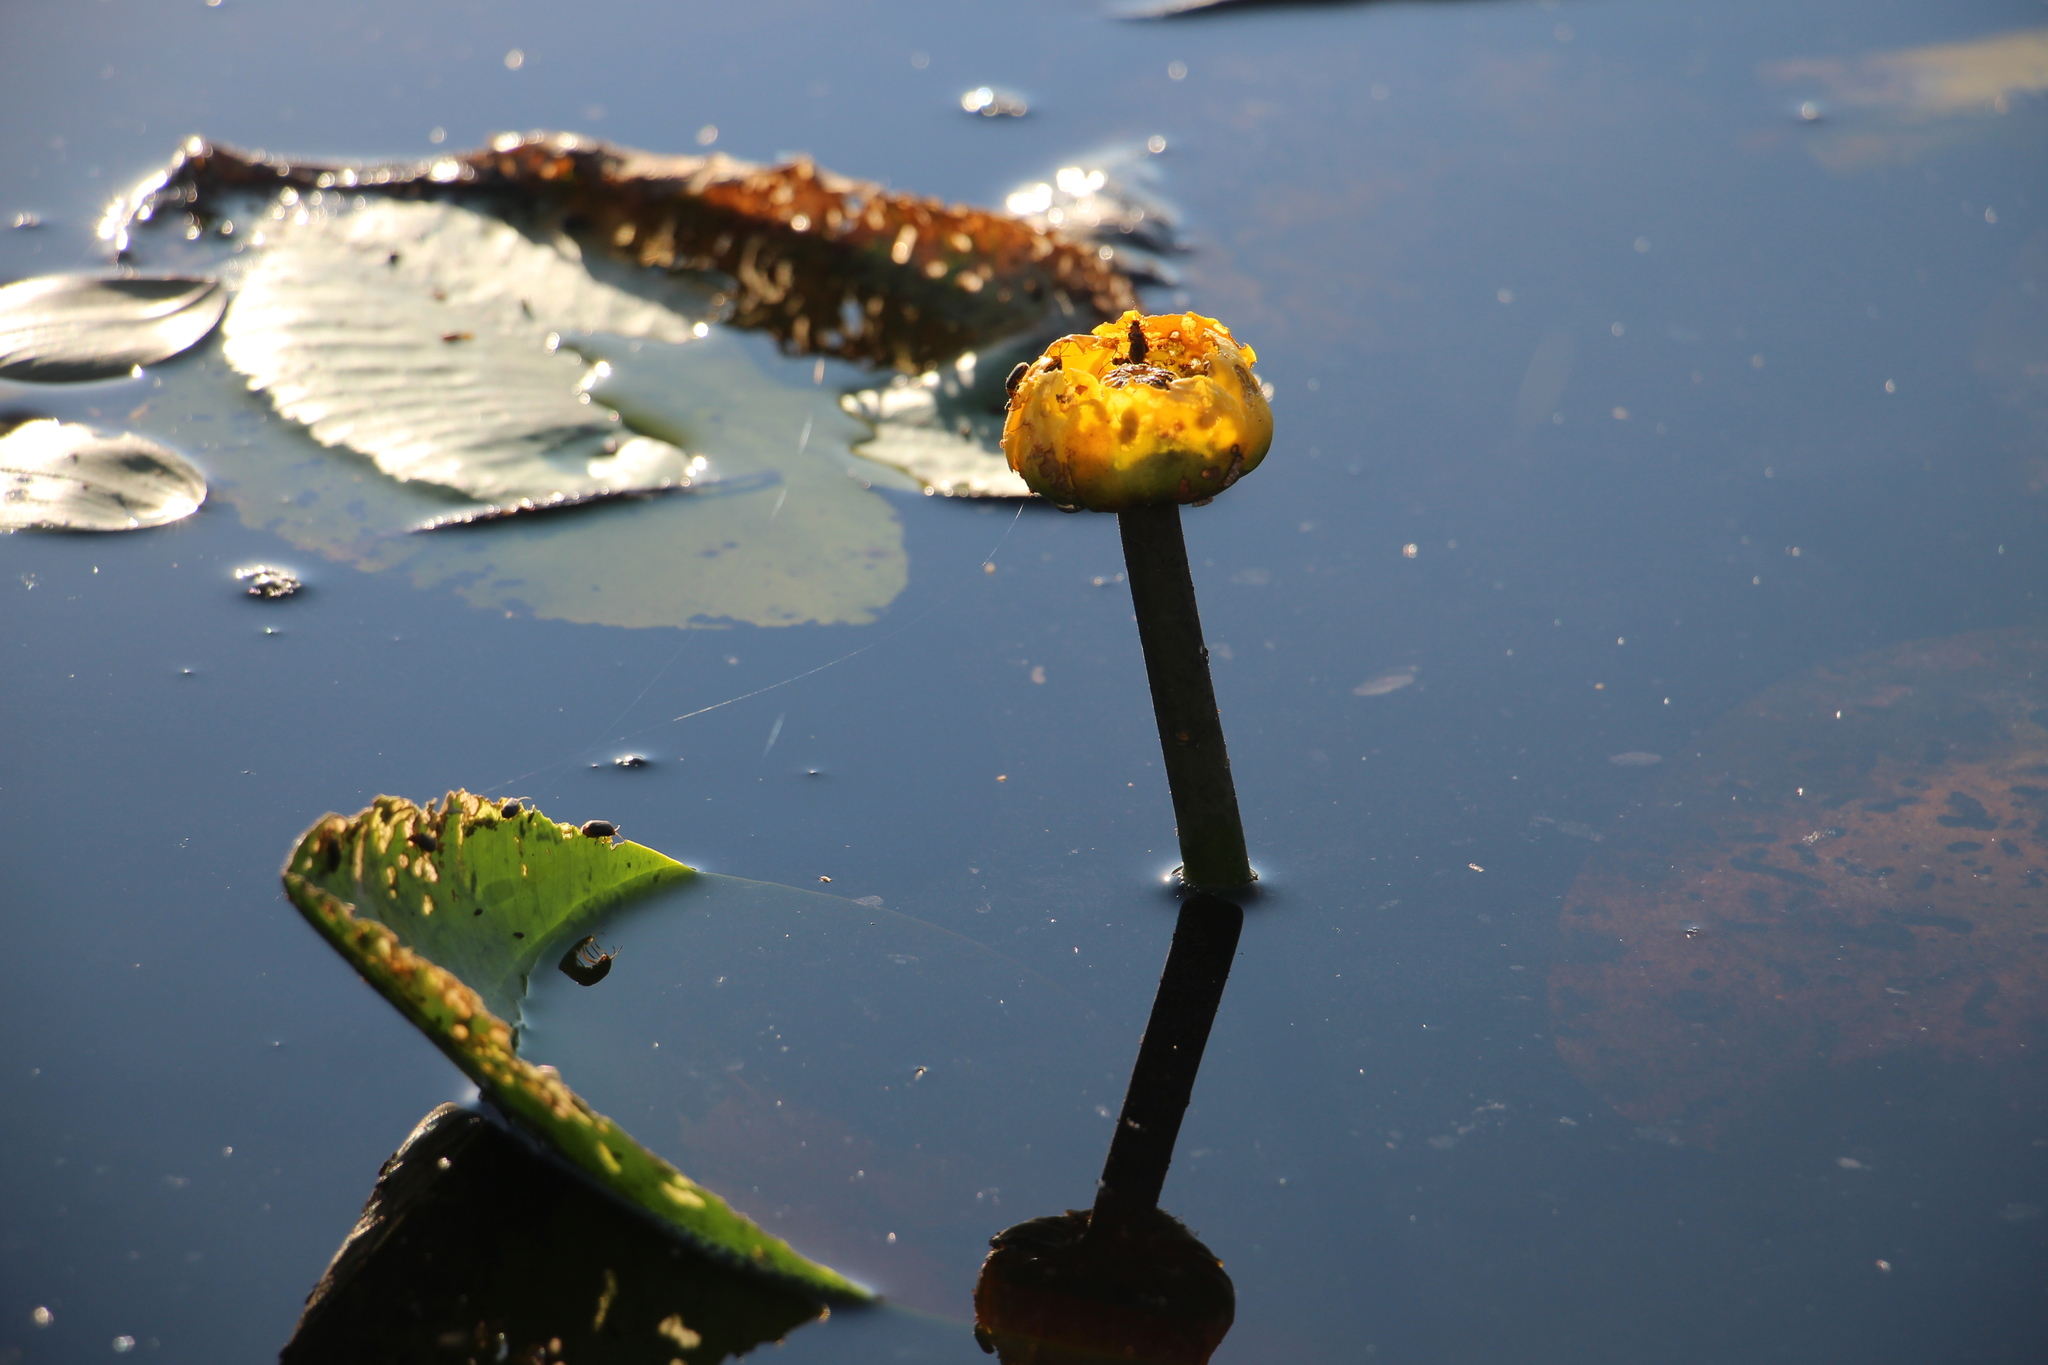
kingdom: Plantae
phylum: Tracheophyta
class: Magnoliopsida
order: Nymphaeales
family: Nymphaeaceae
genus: Nuphar
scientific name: Nuphar lutea
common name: Yellow water-lily
